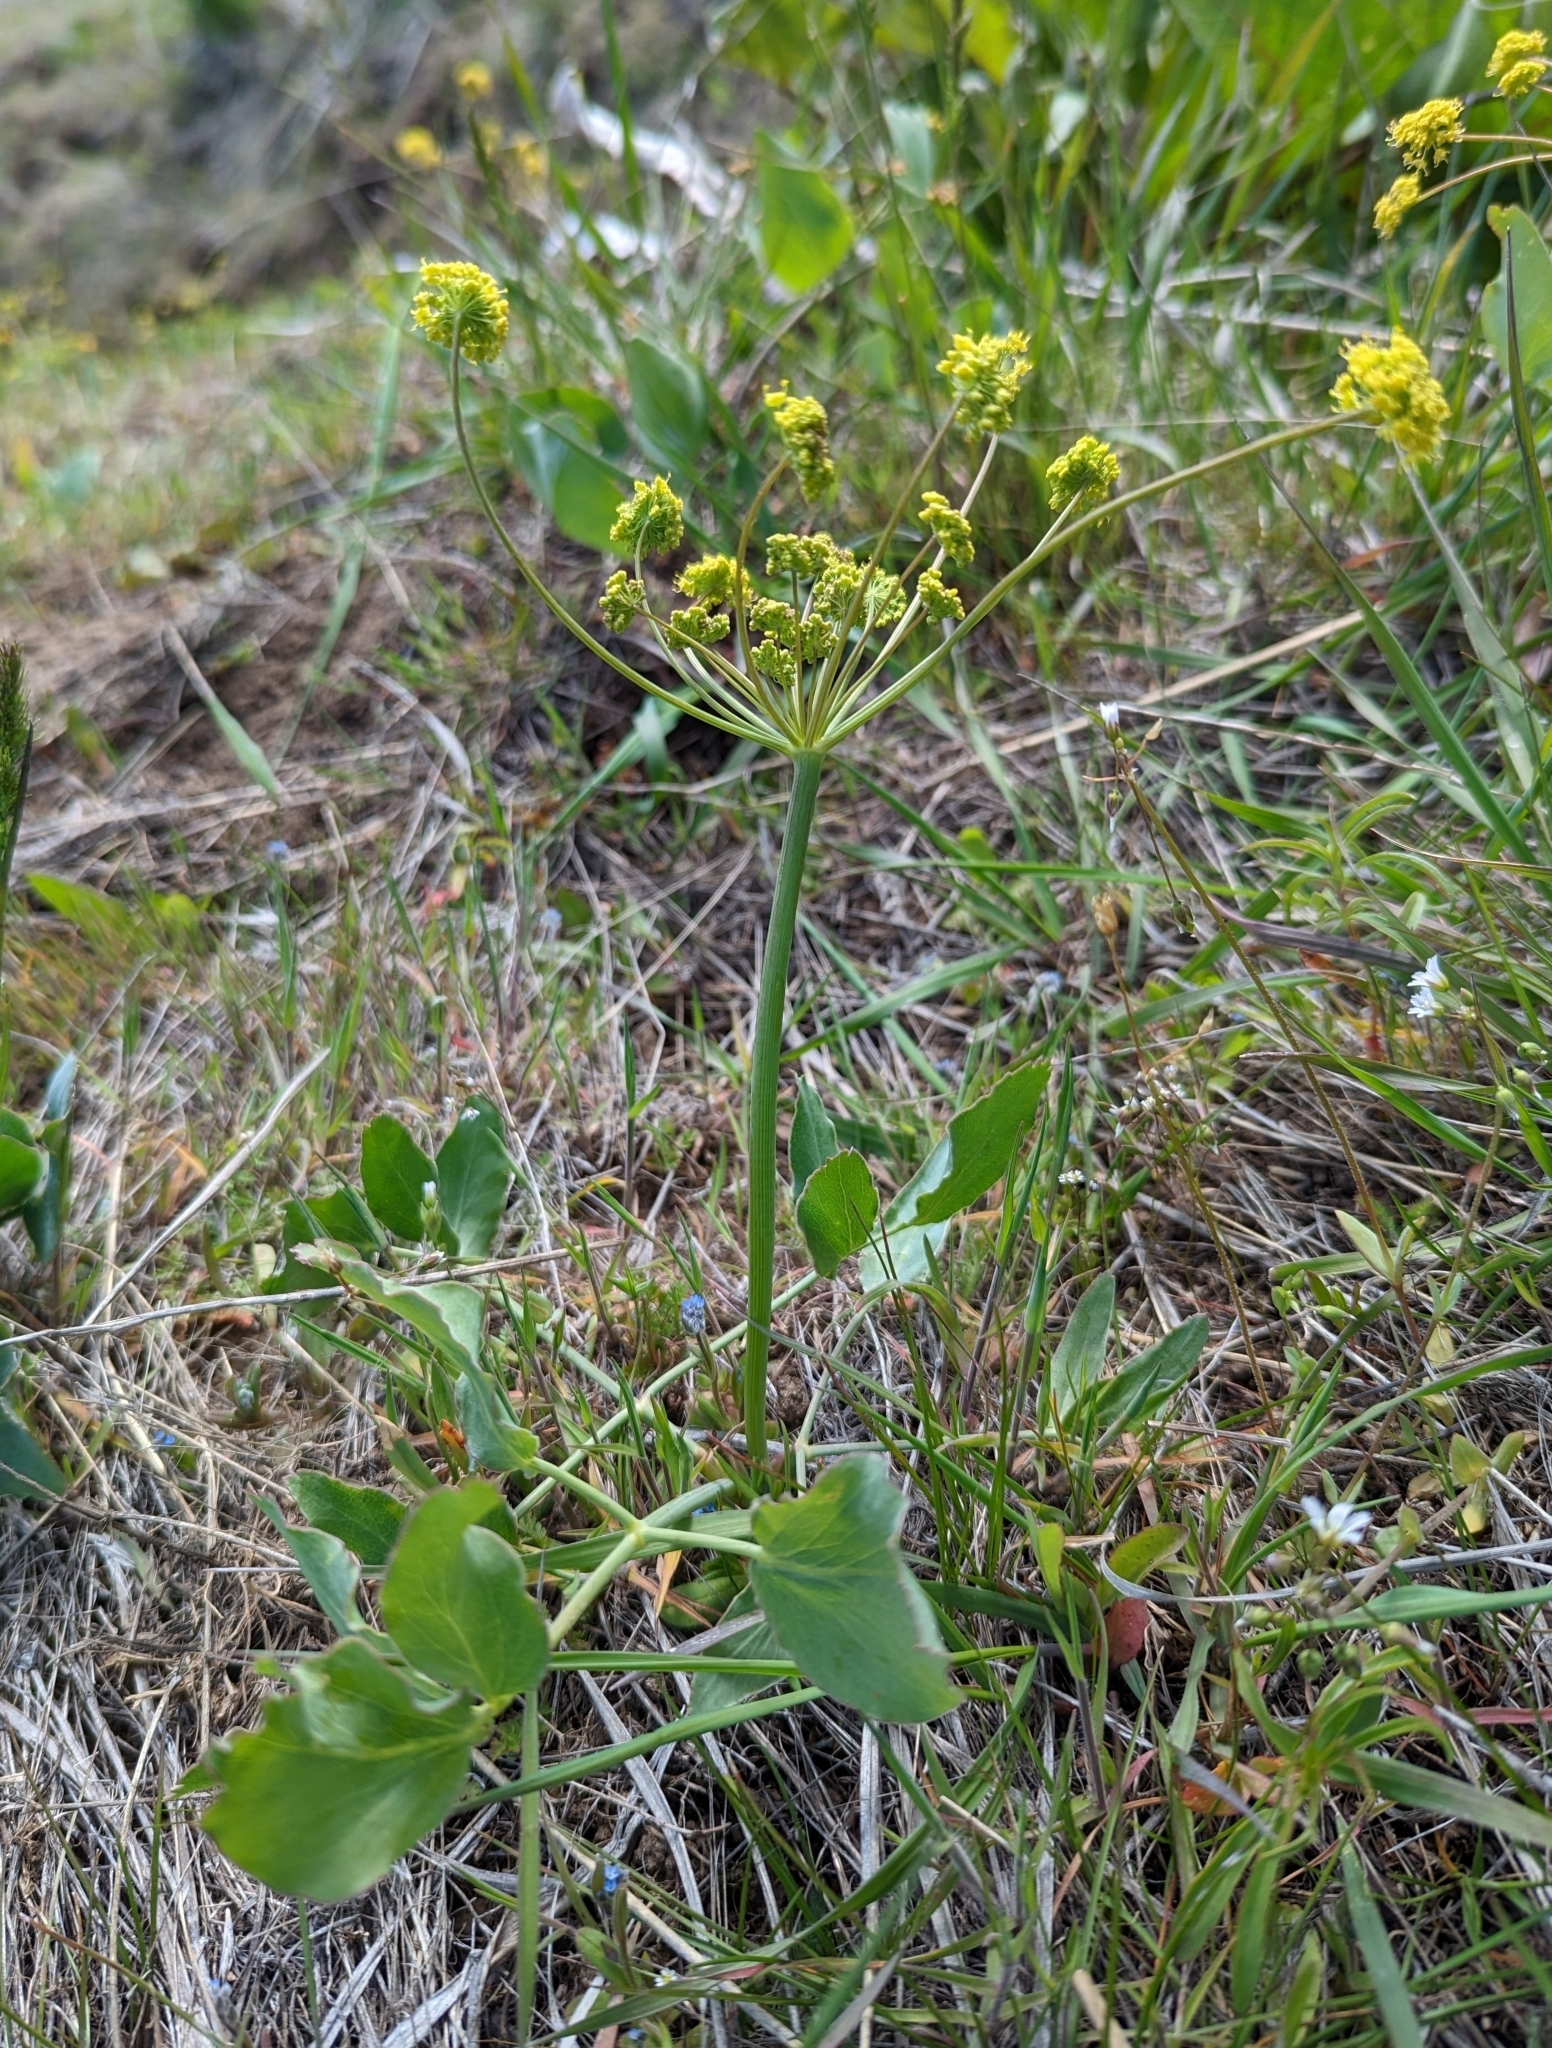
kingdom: Plantae
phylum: Tracheophyta
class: Magnoliopsida
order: Apiales
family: Apiaceae
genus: Lomatium
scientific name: Lomatium nudicaule
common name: Pestle lomatium
